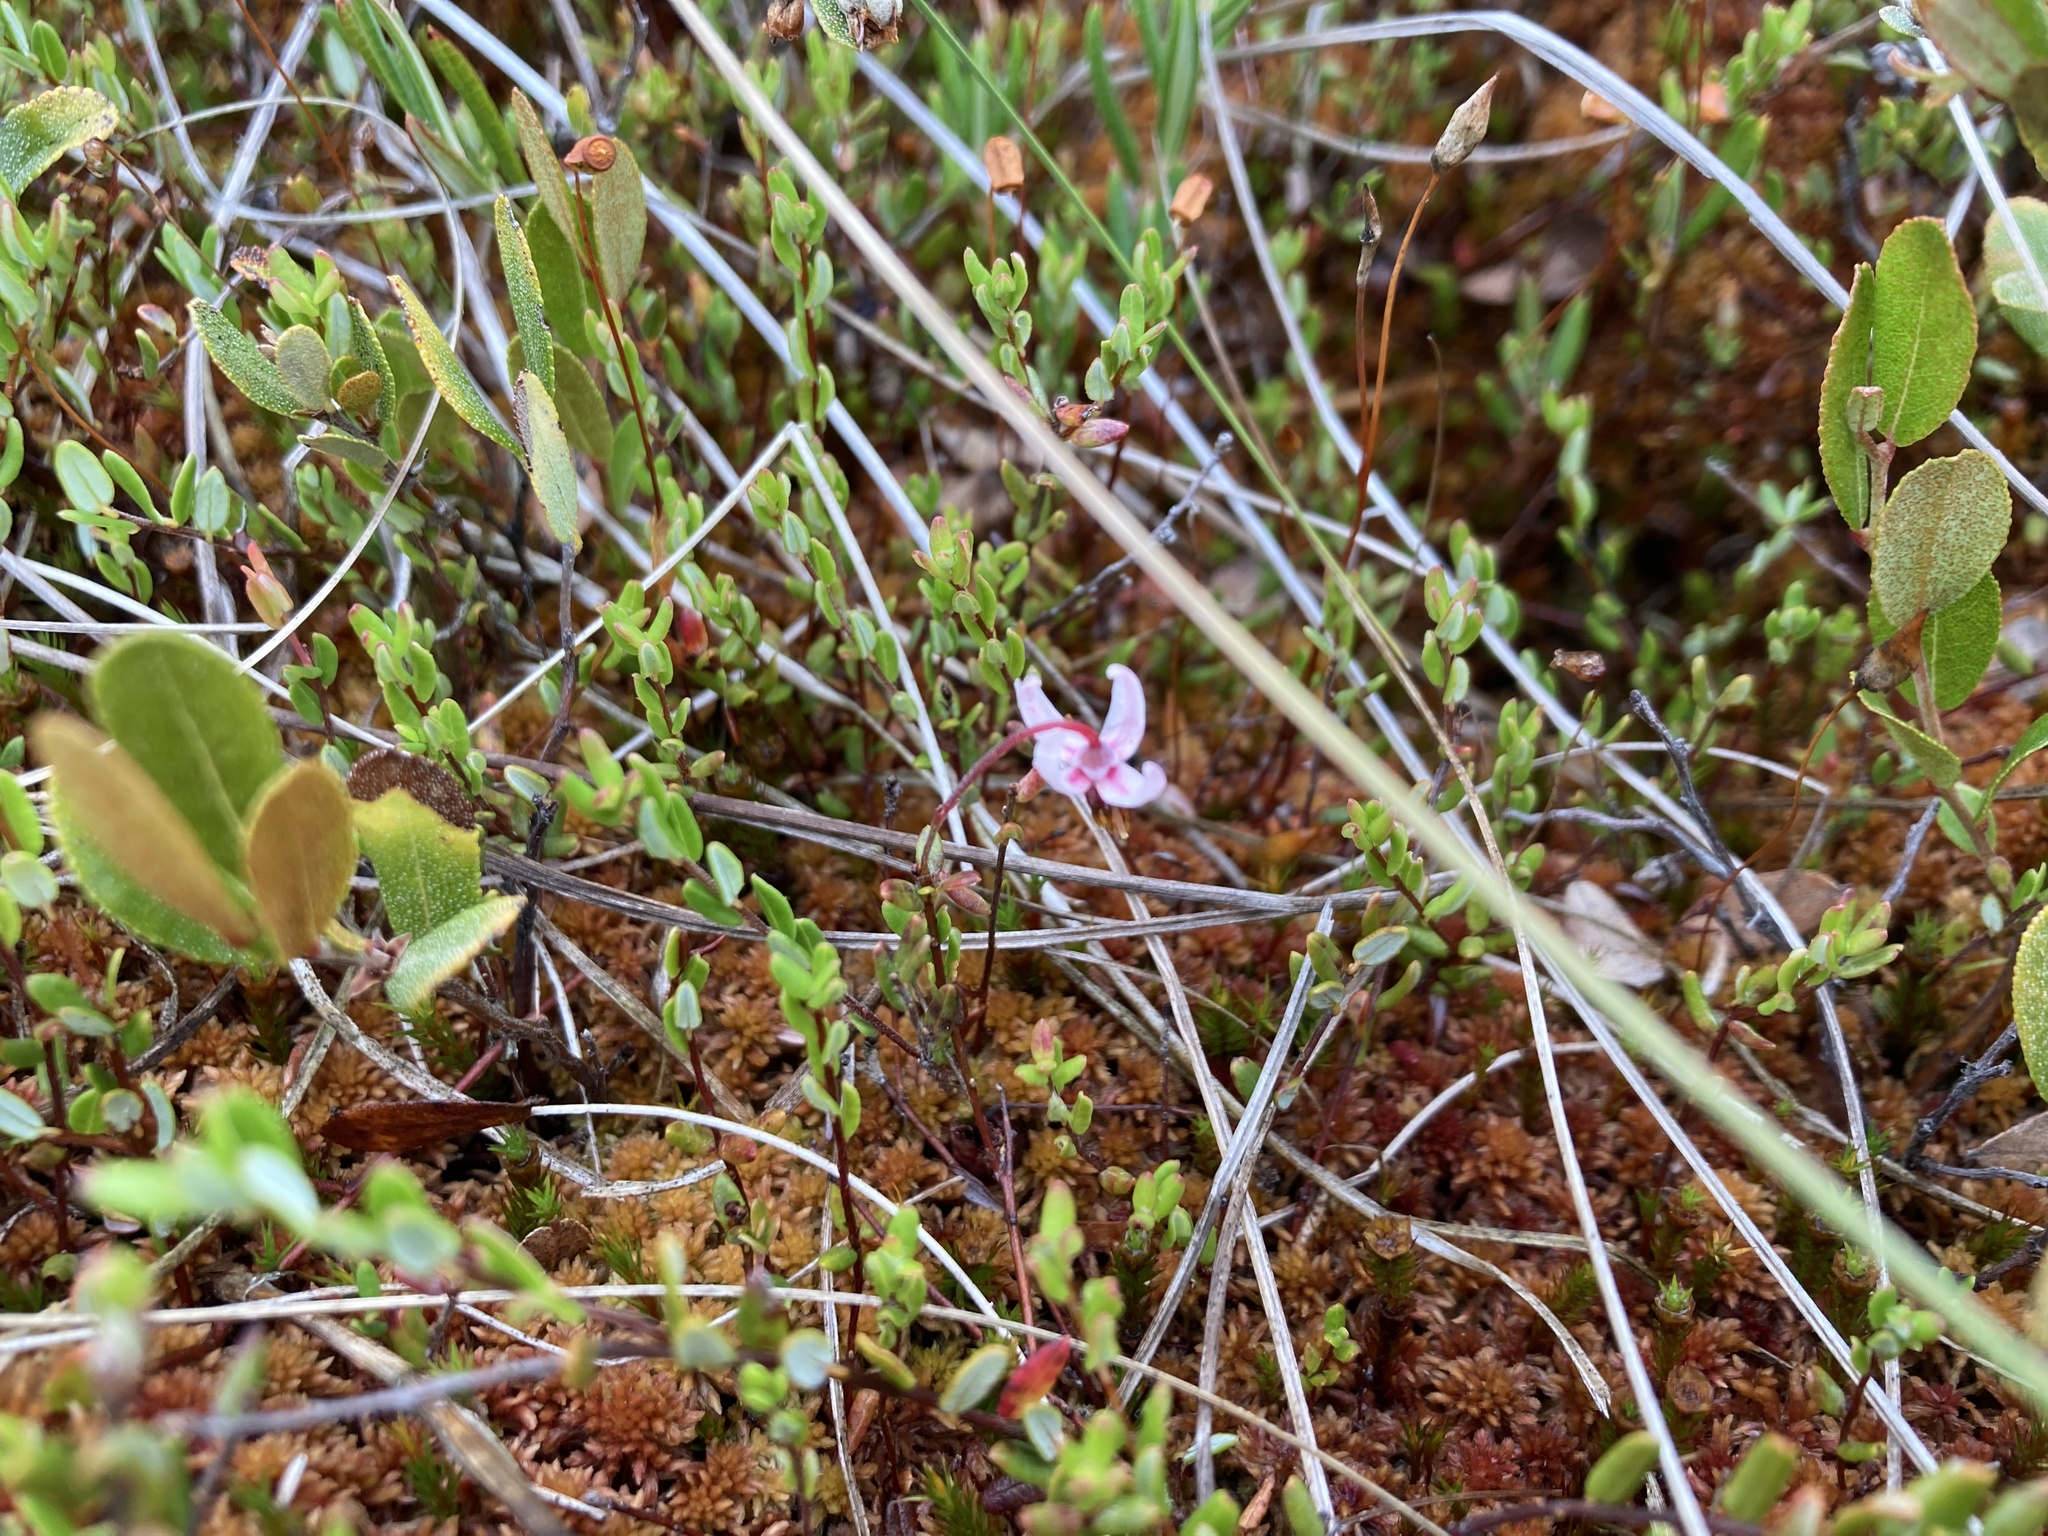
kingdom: Plantae
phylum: Tracheophyta
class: Magnoliopsida
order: Ericales
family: Ericaceae
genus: Vaccinium
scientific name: Vaccinium oxycoccos
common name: Cranberry
